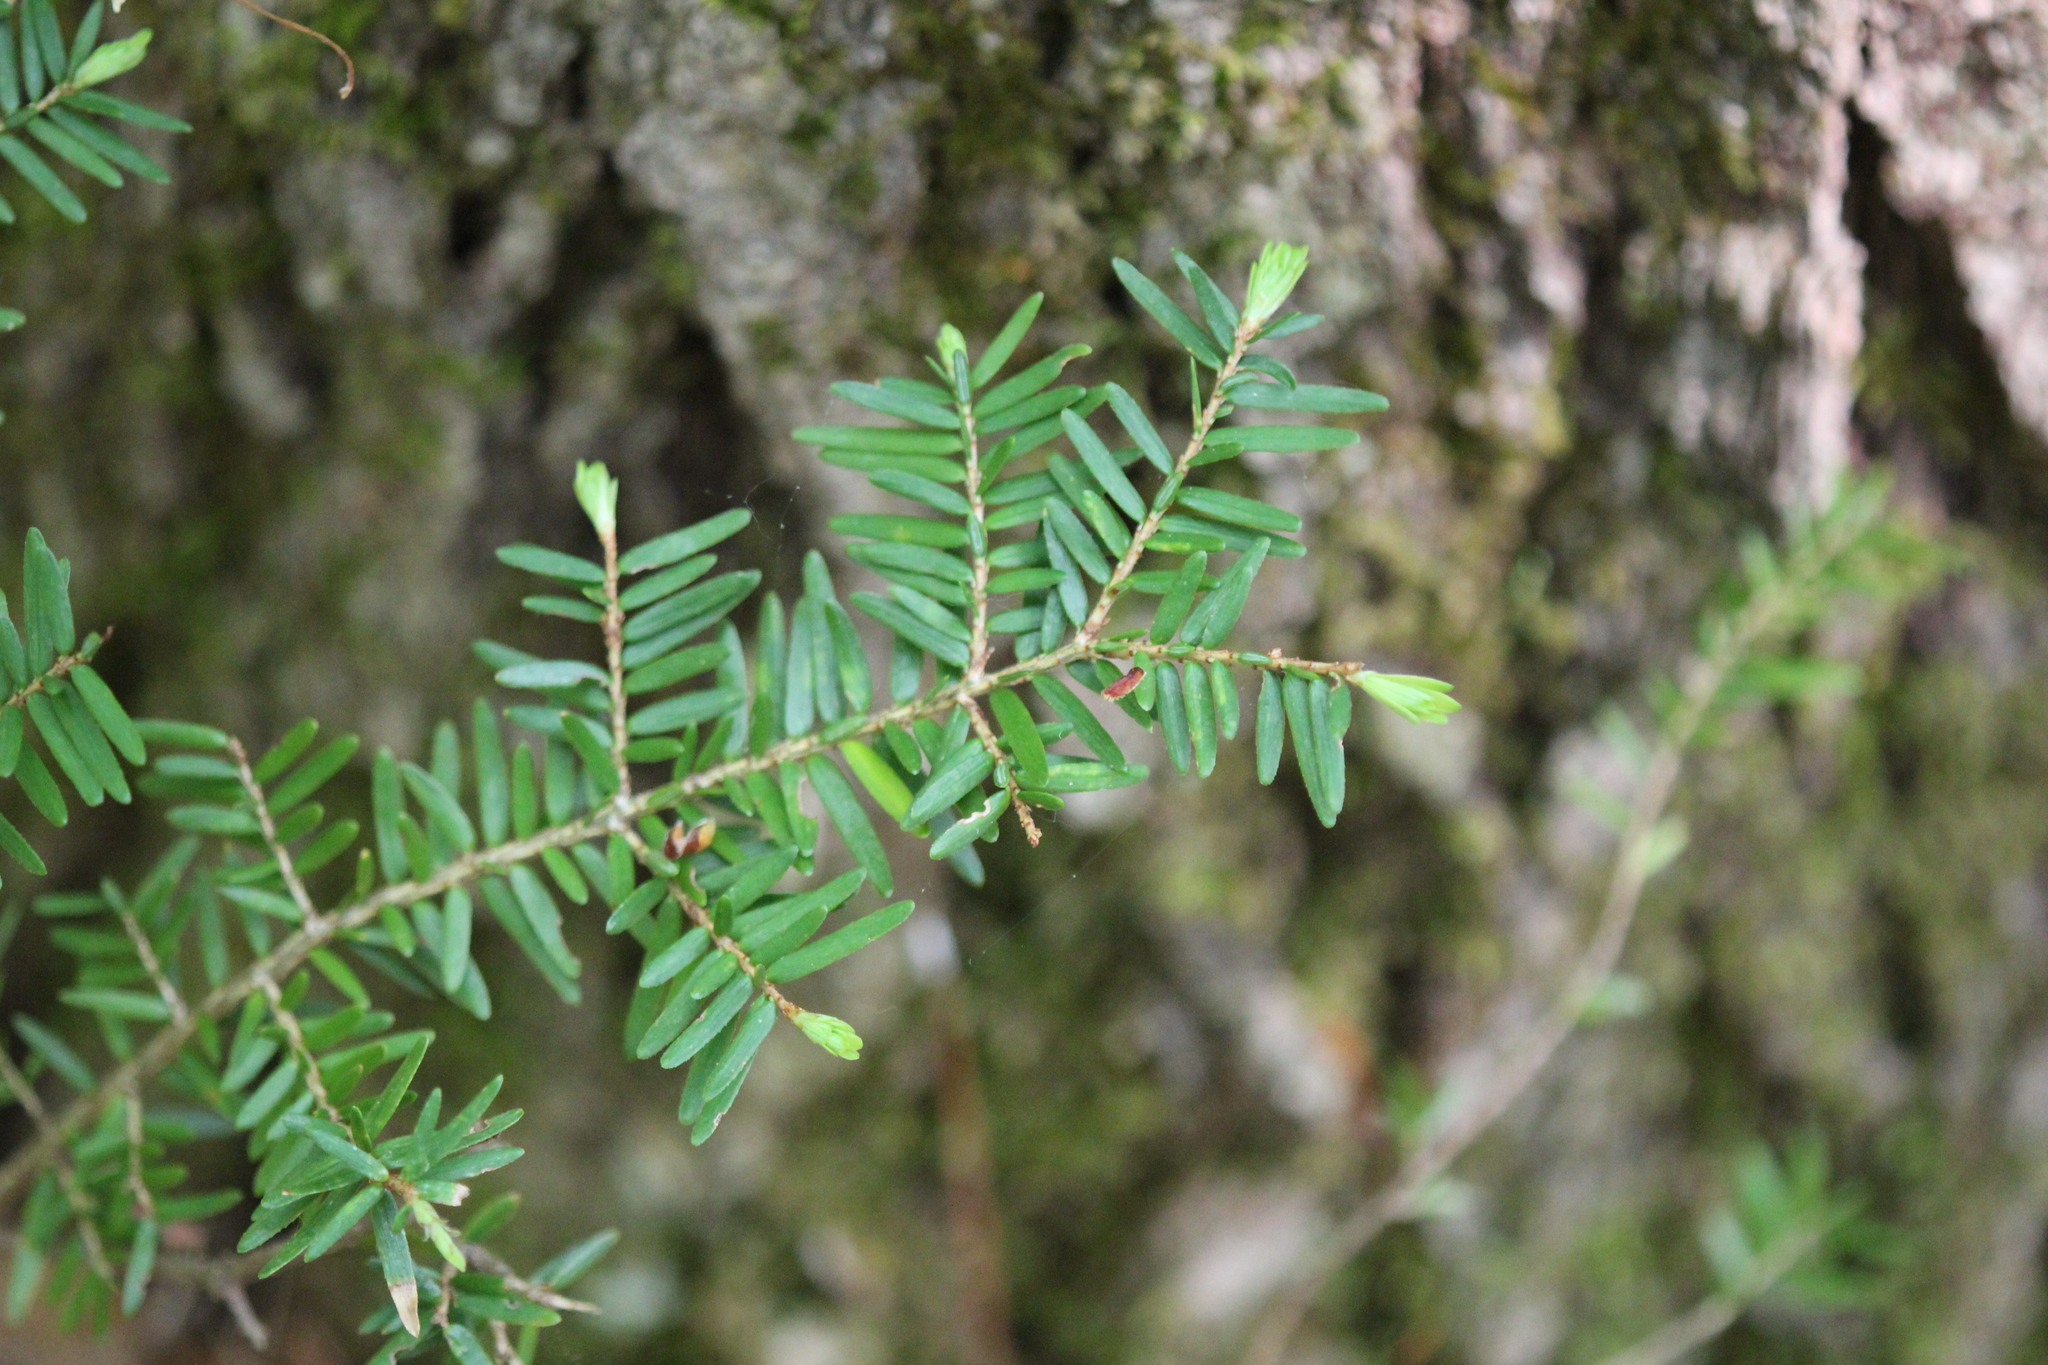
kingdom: Plantae
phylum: Tracheophyta
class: Pinopsida
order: Pinales
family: Pinaceae
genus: Tsuga
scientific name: Tsuga canadensis
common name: Eastern hemlock
